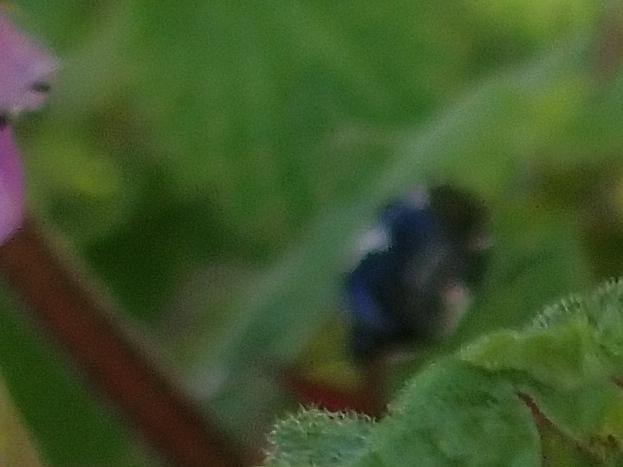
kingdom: Animalia
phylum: Arthropoda
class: Insecta
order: Hemiptera
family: Cydnidae
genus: Tritomegas
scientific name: Tritomegas sexmaculatus
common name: Rambur's pied shieldbug
